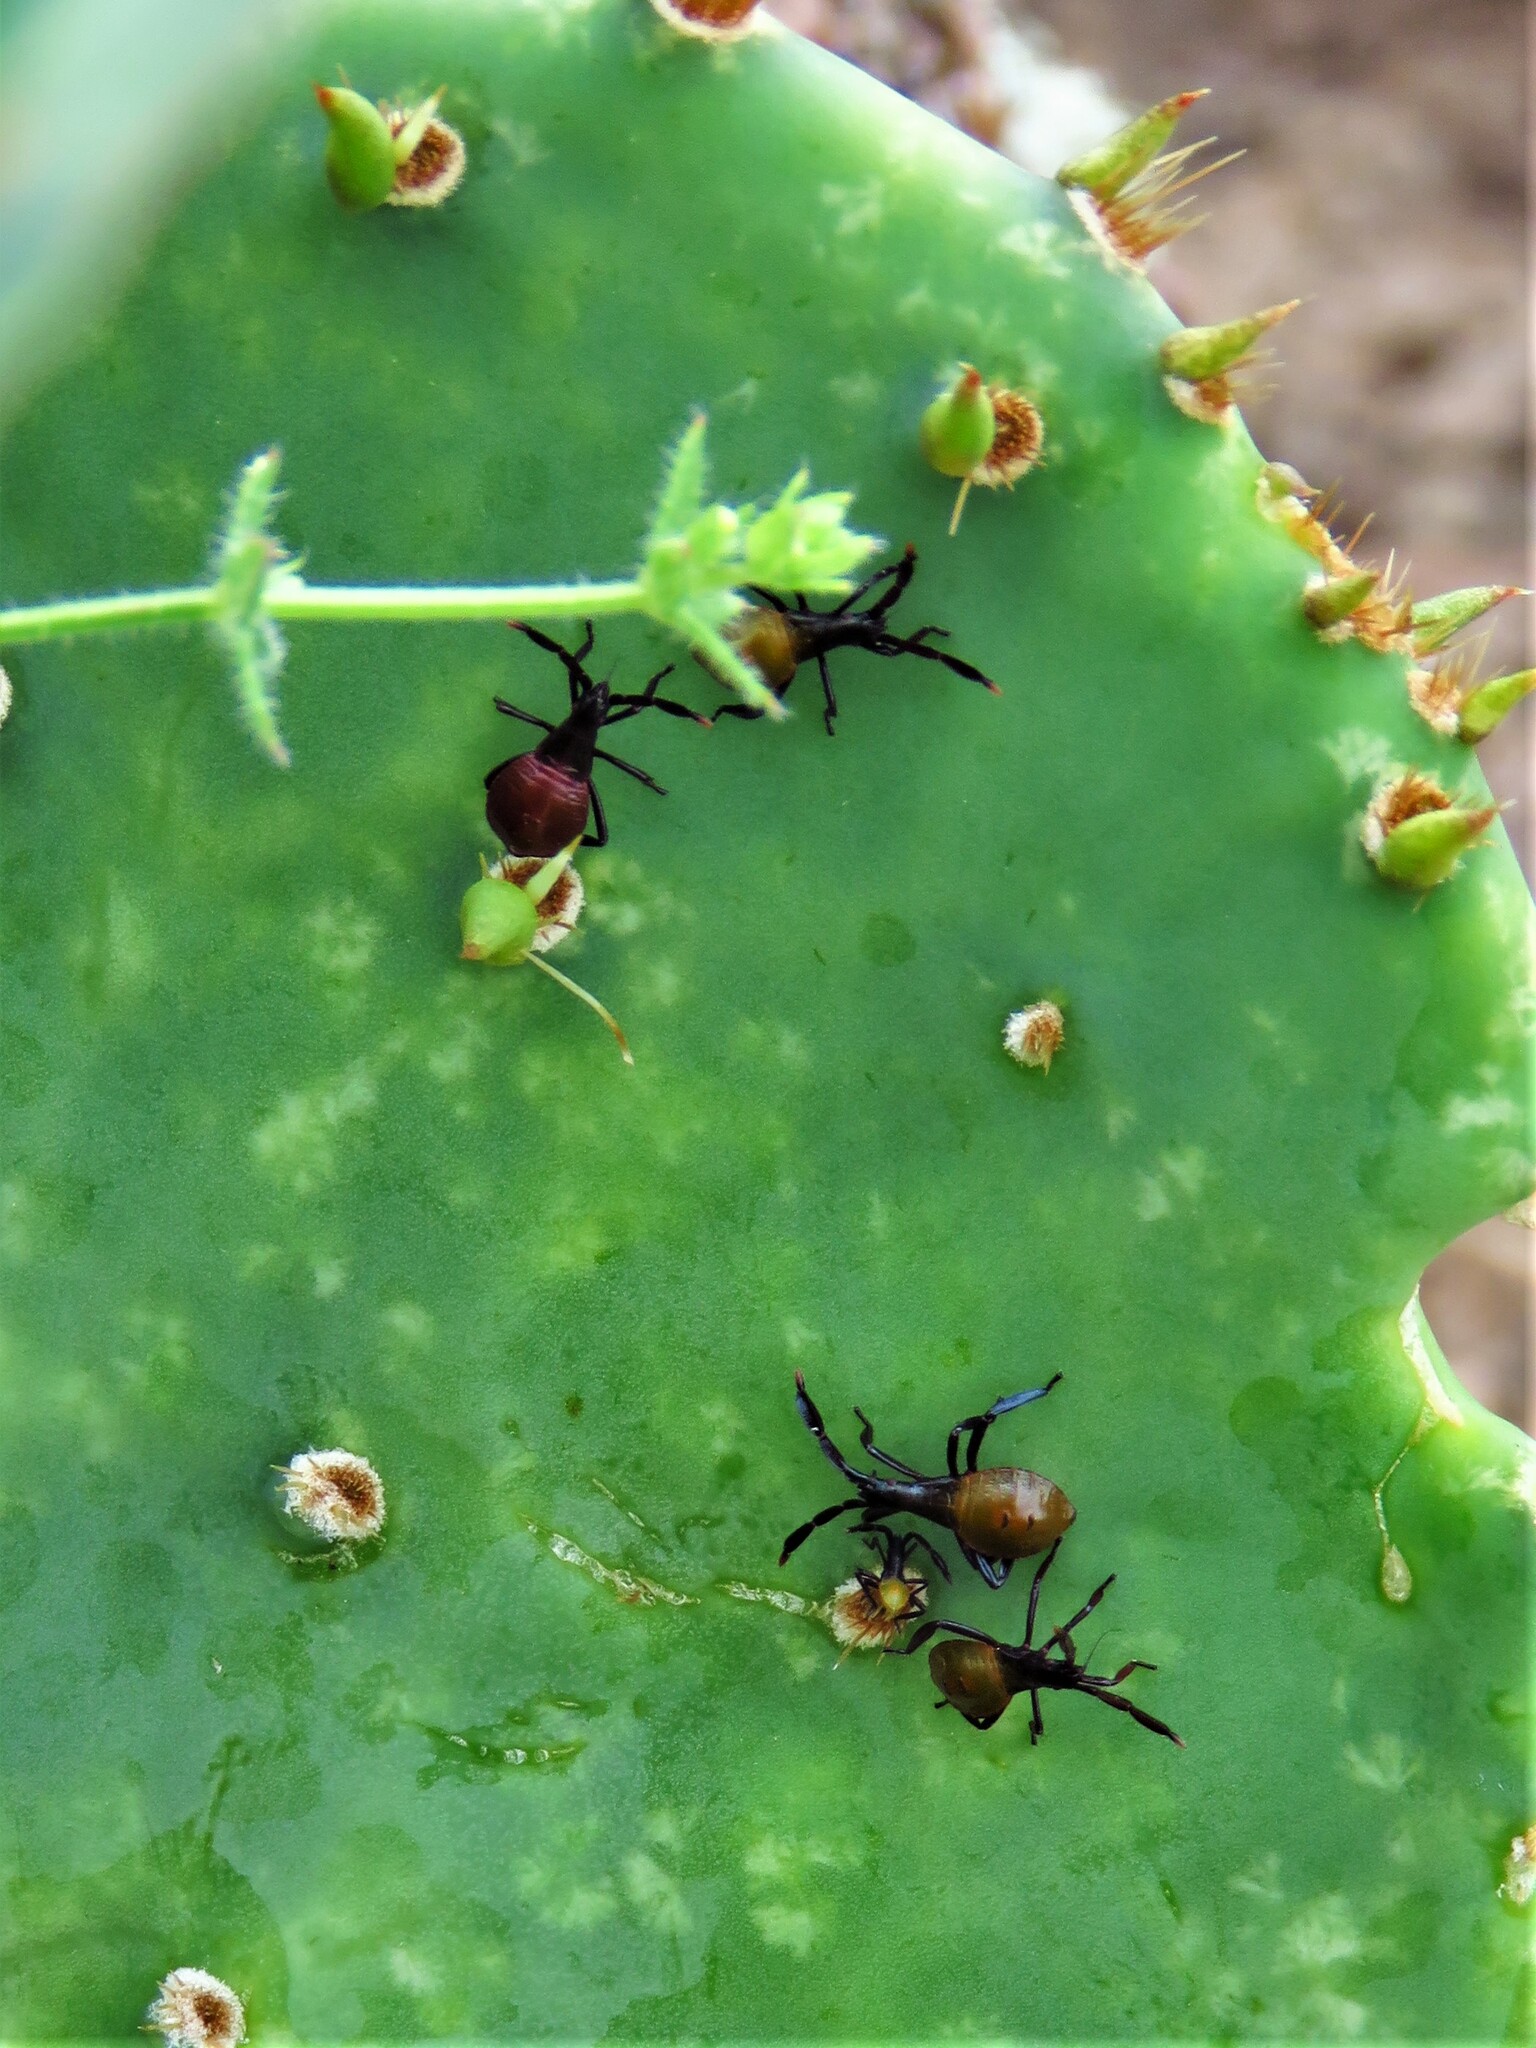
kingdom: Animalia
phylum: Arthropoda
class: Insecta
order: Hemiptera
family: Coreidae
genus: Chelinidea
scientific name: Chelinidea vittiger
